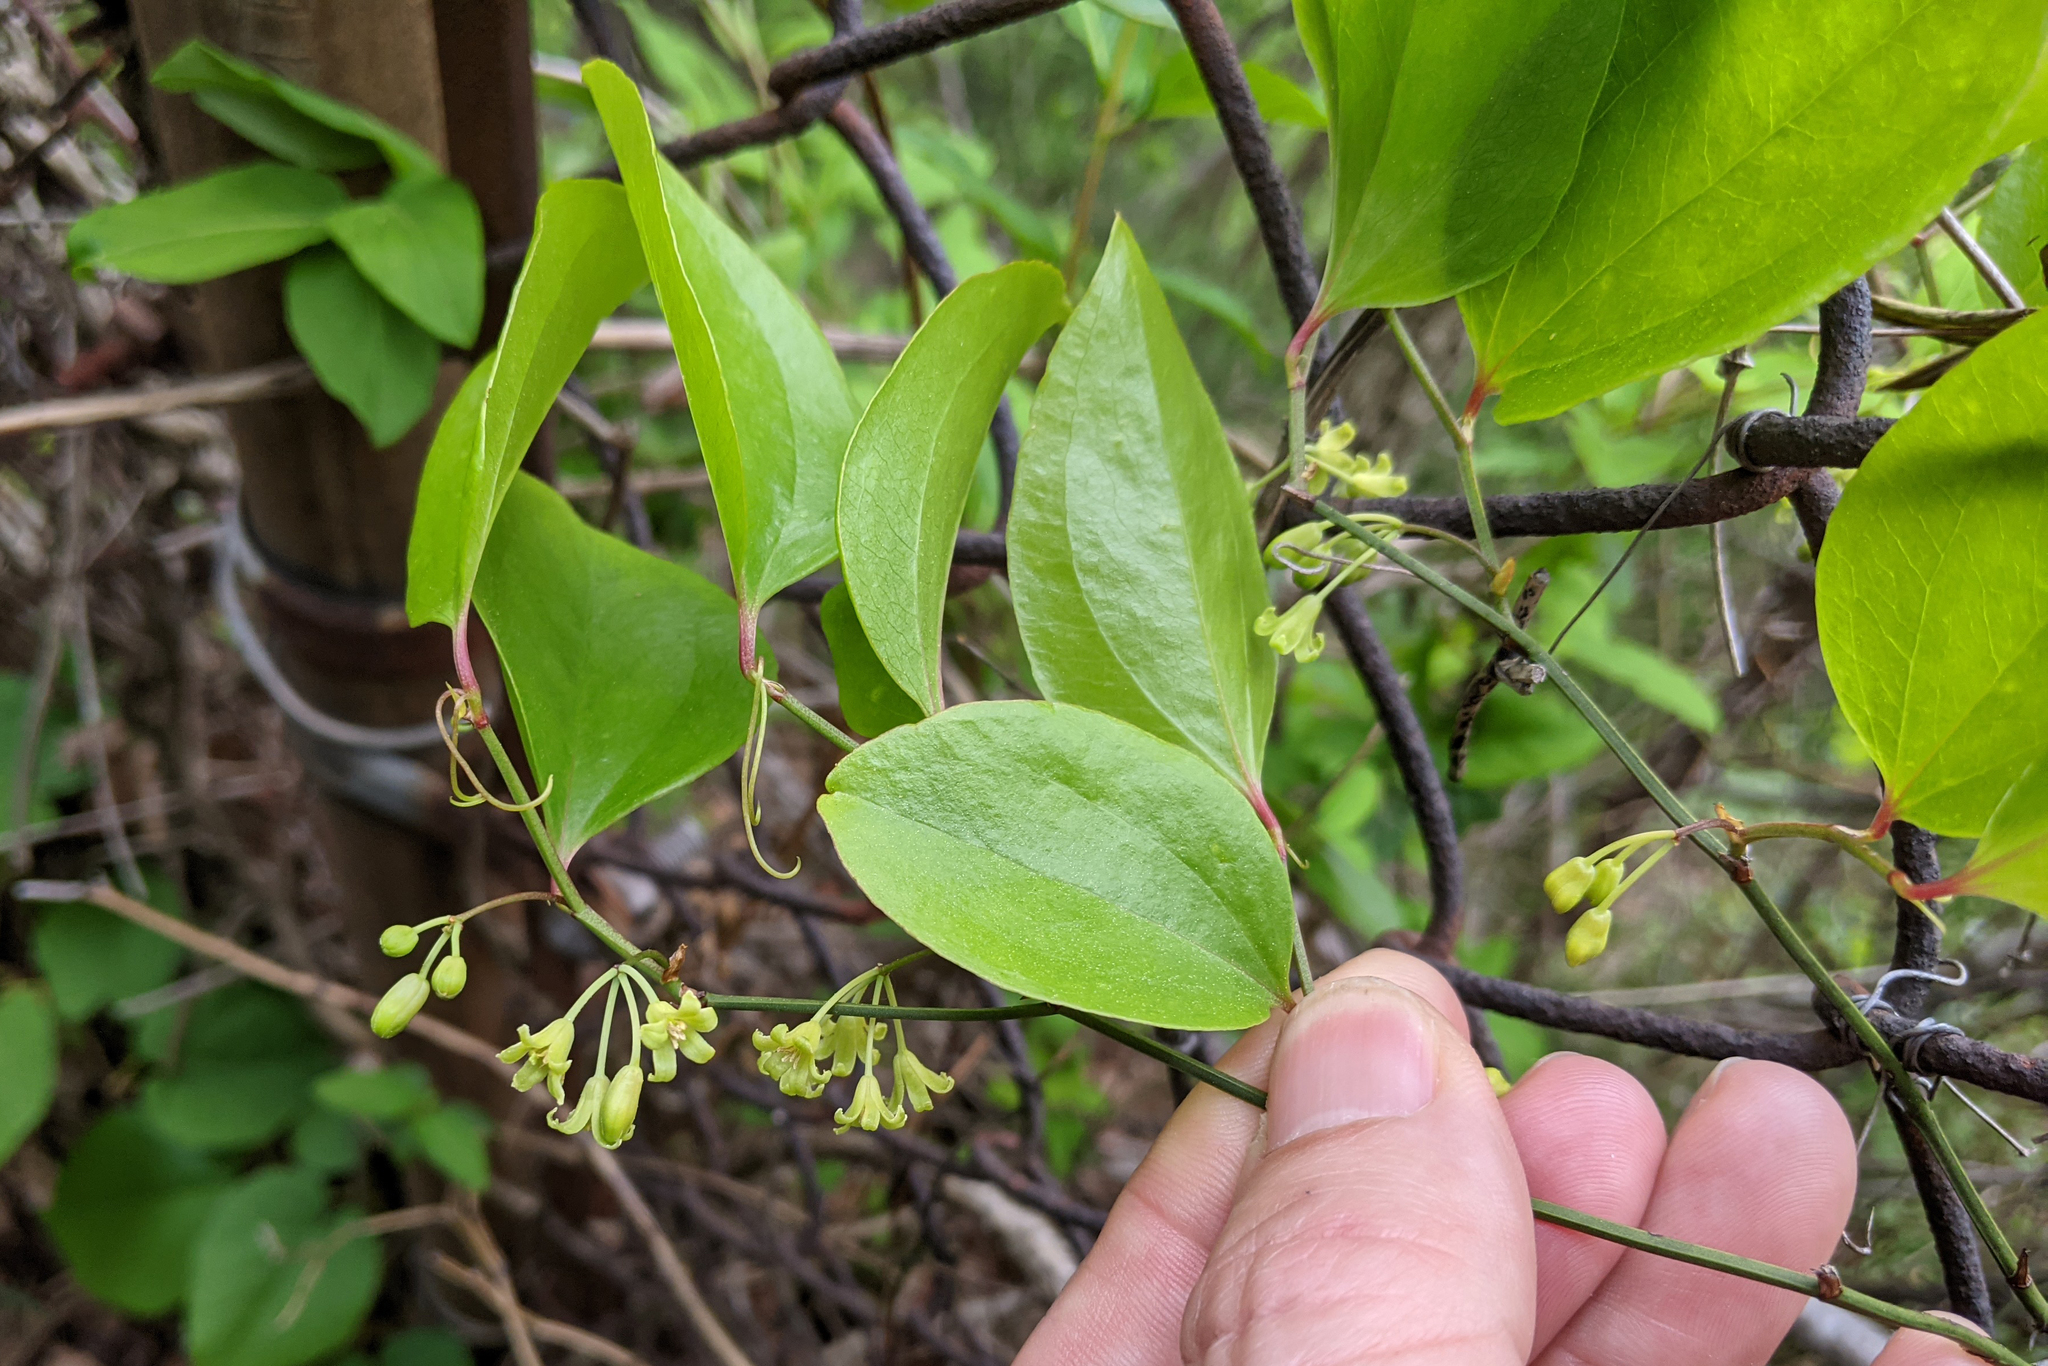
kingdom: Plantae
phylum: Tracheophyta
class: Liliopsida
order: Liliales
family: Smilacaceae
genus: Smilax
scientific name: Smilax rotundifolia
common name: Bullbriar
